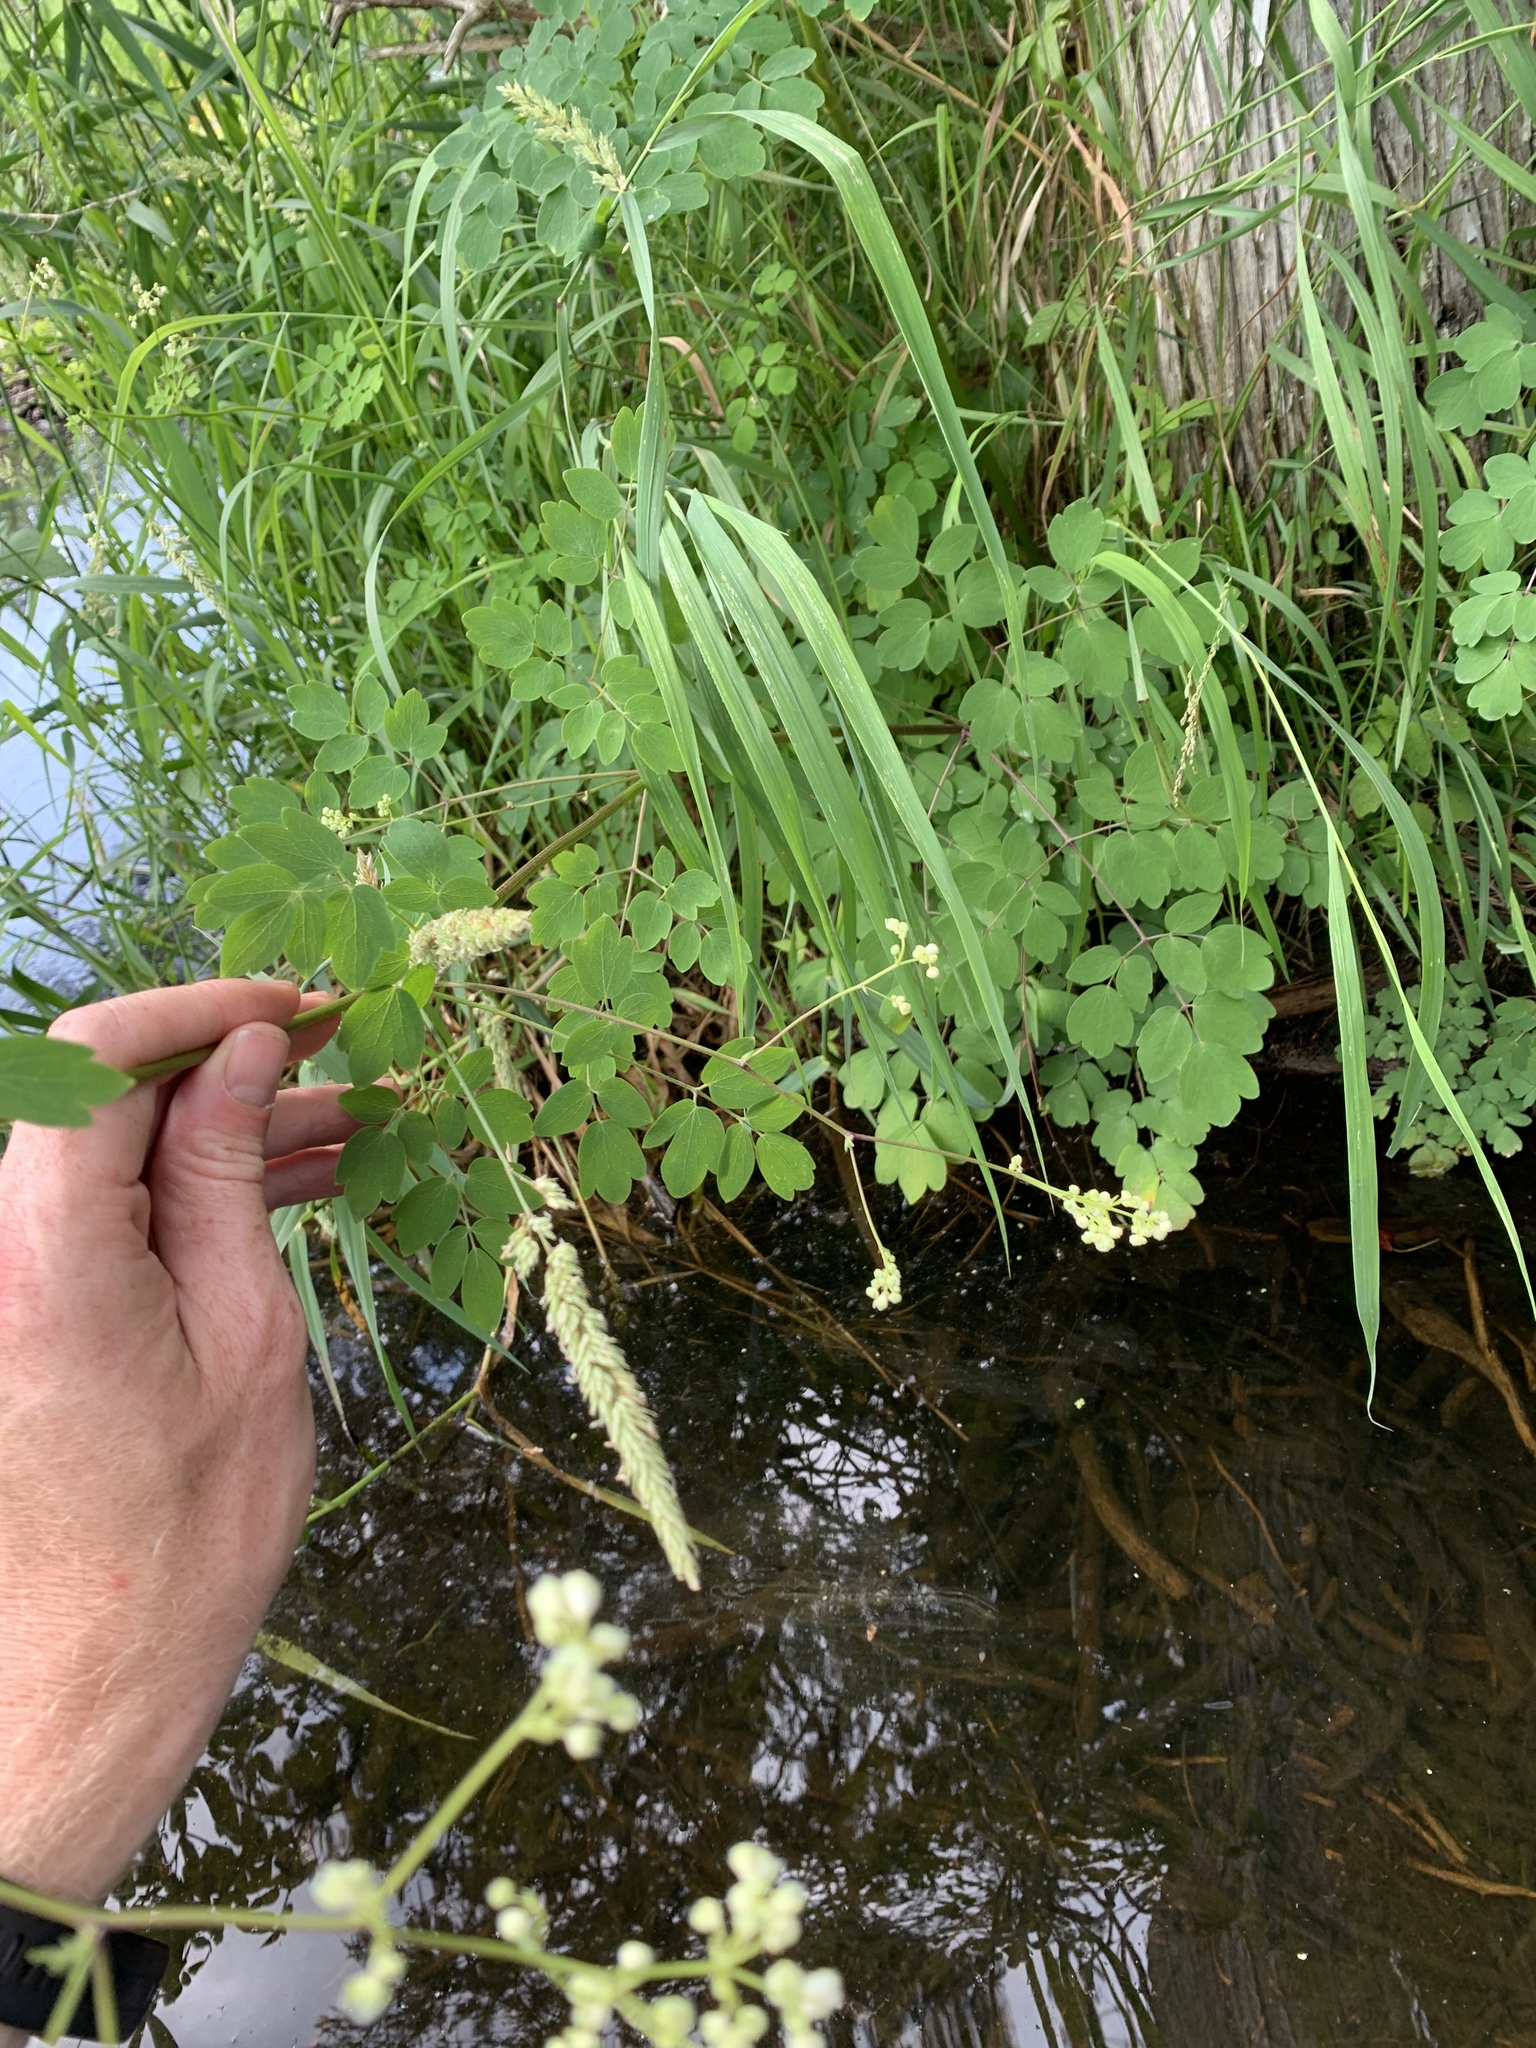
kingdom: Plantae
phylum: Tracheophyta
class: Magnoliopsida
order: Ranunculales
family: Ranunculaceae
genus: Thalictrum
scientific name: Thalictrum pubescens
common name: King-of-the-meadow
